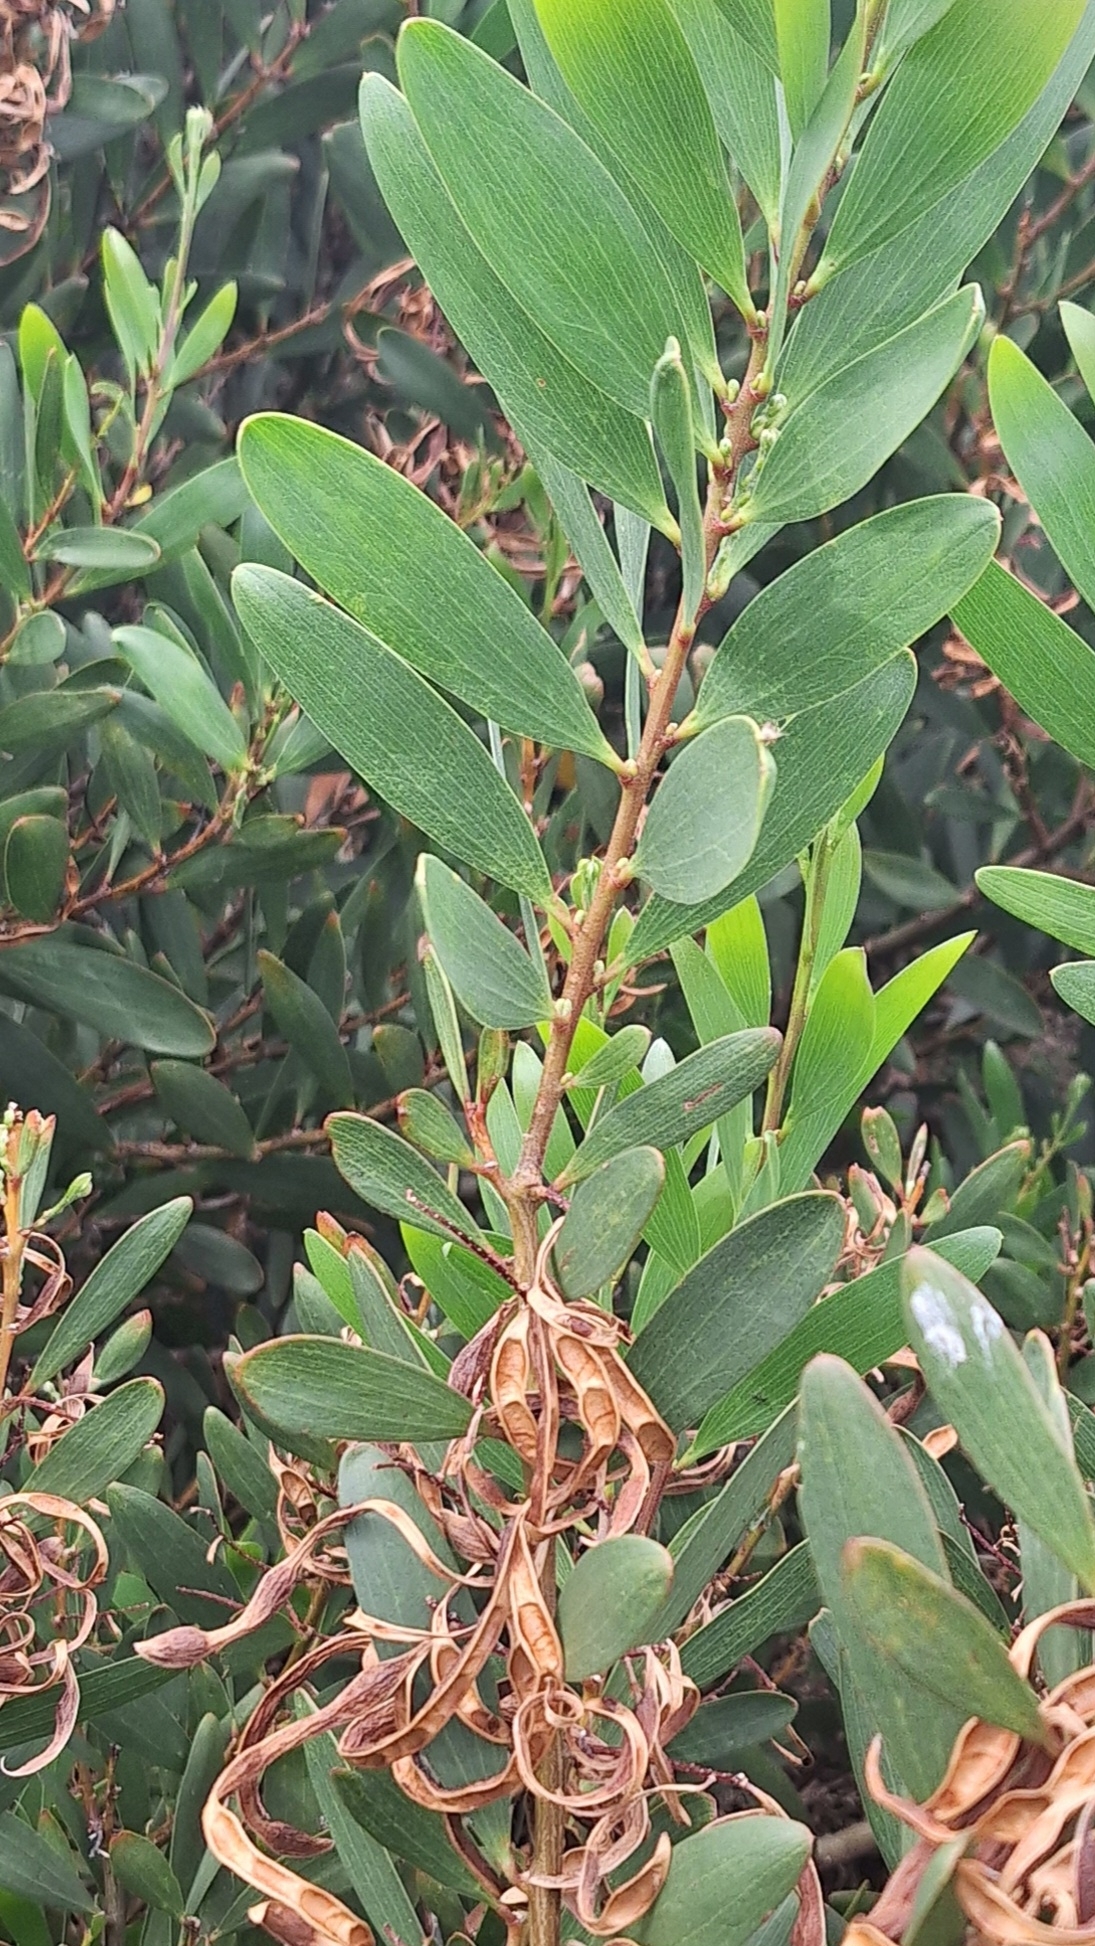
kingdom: Plantae
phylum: Tracheophyta
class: Magnoliopsida
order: Fabales
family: Fabaceae
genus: Acacia
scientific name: Acacia longifolia
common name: Sydney golden wattle
